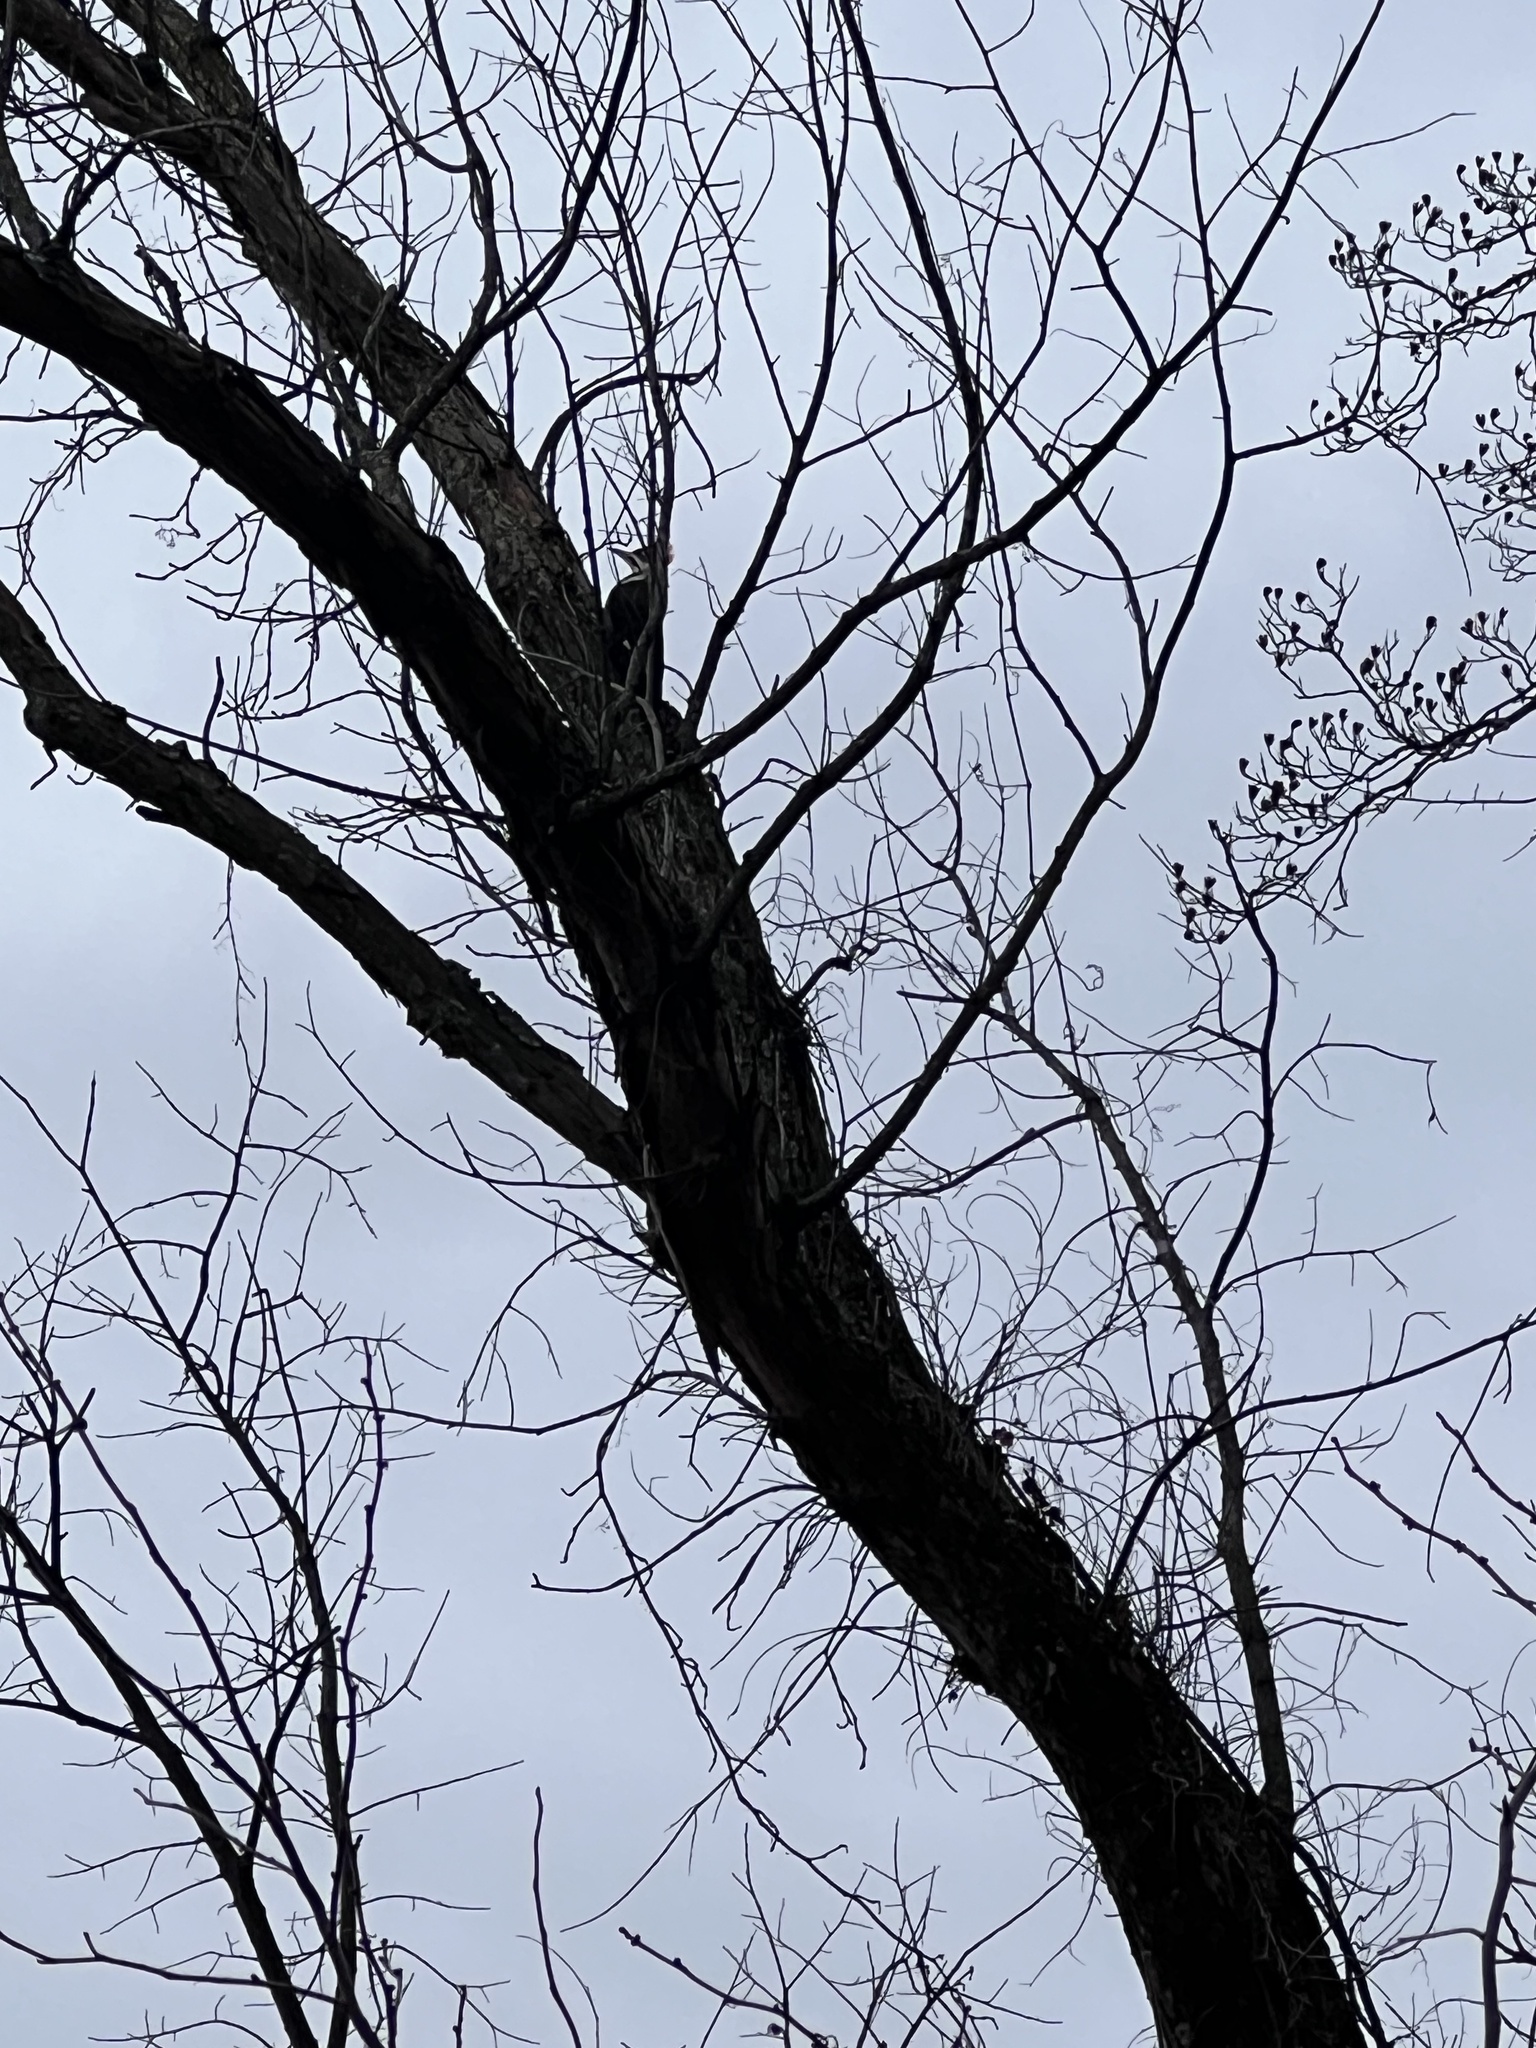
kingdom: Animalia
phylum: Chordata
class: Aves
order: Piciformes
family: Picidae
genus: Dryocopus
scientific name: Dryocopus pileatus
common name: Pileated woodpecker
